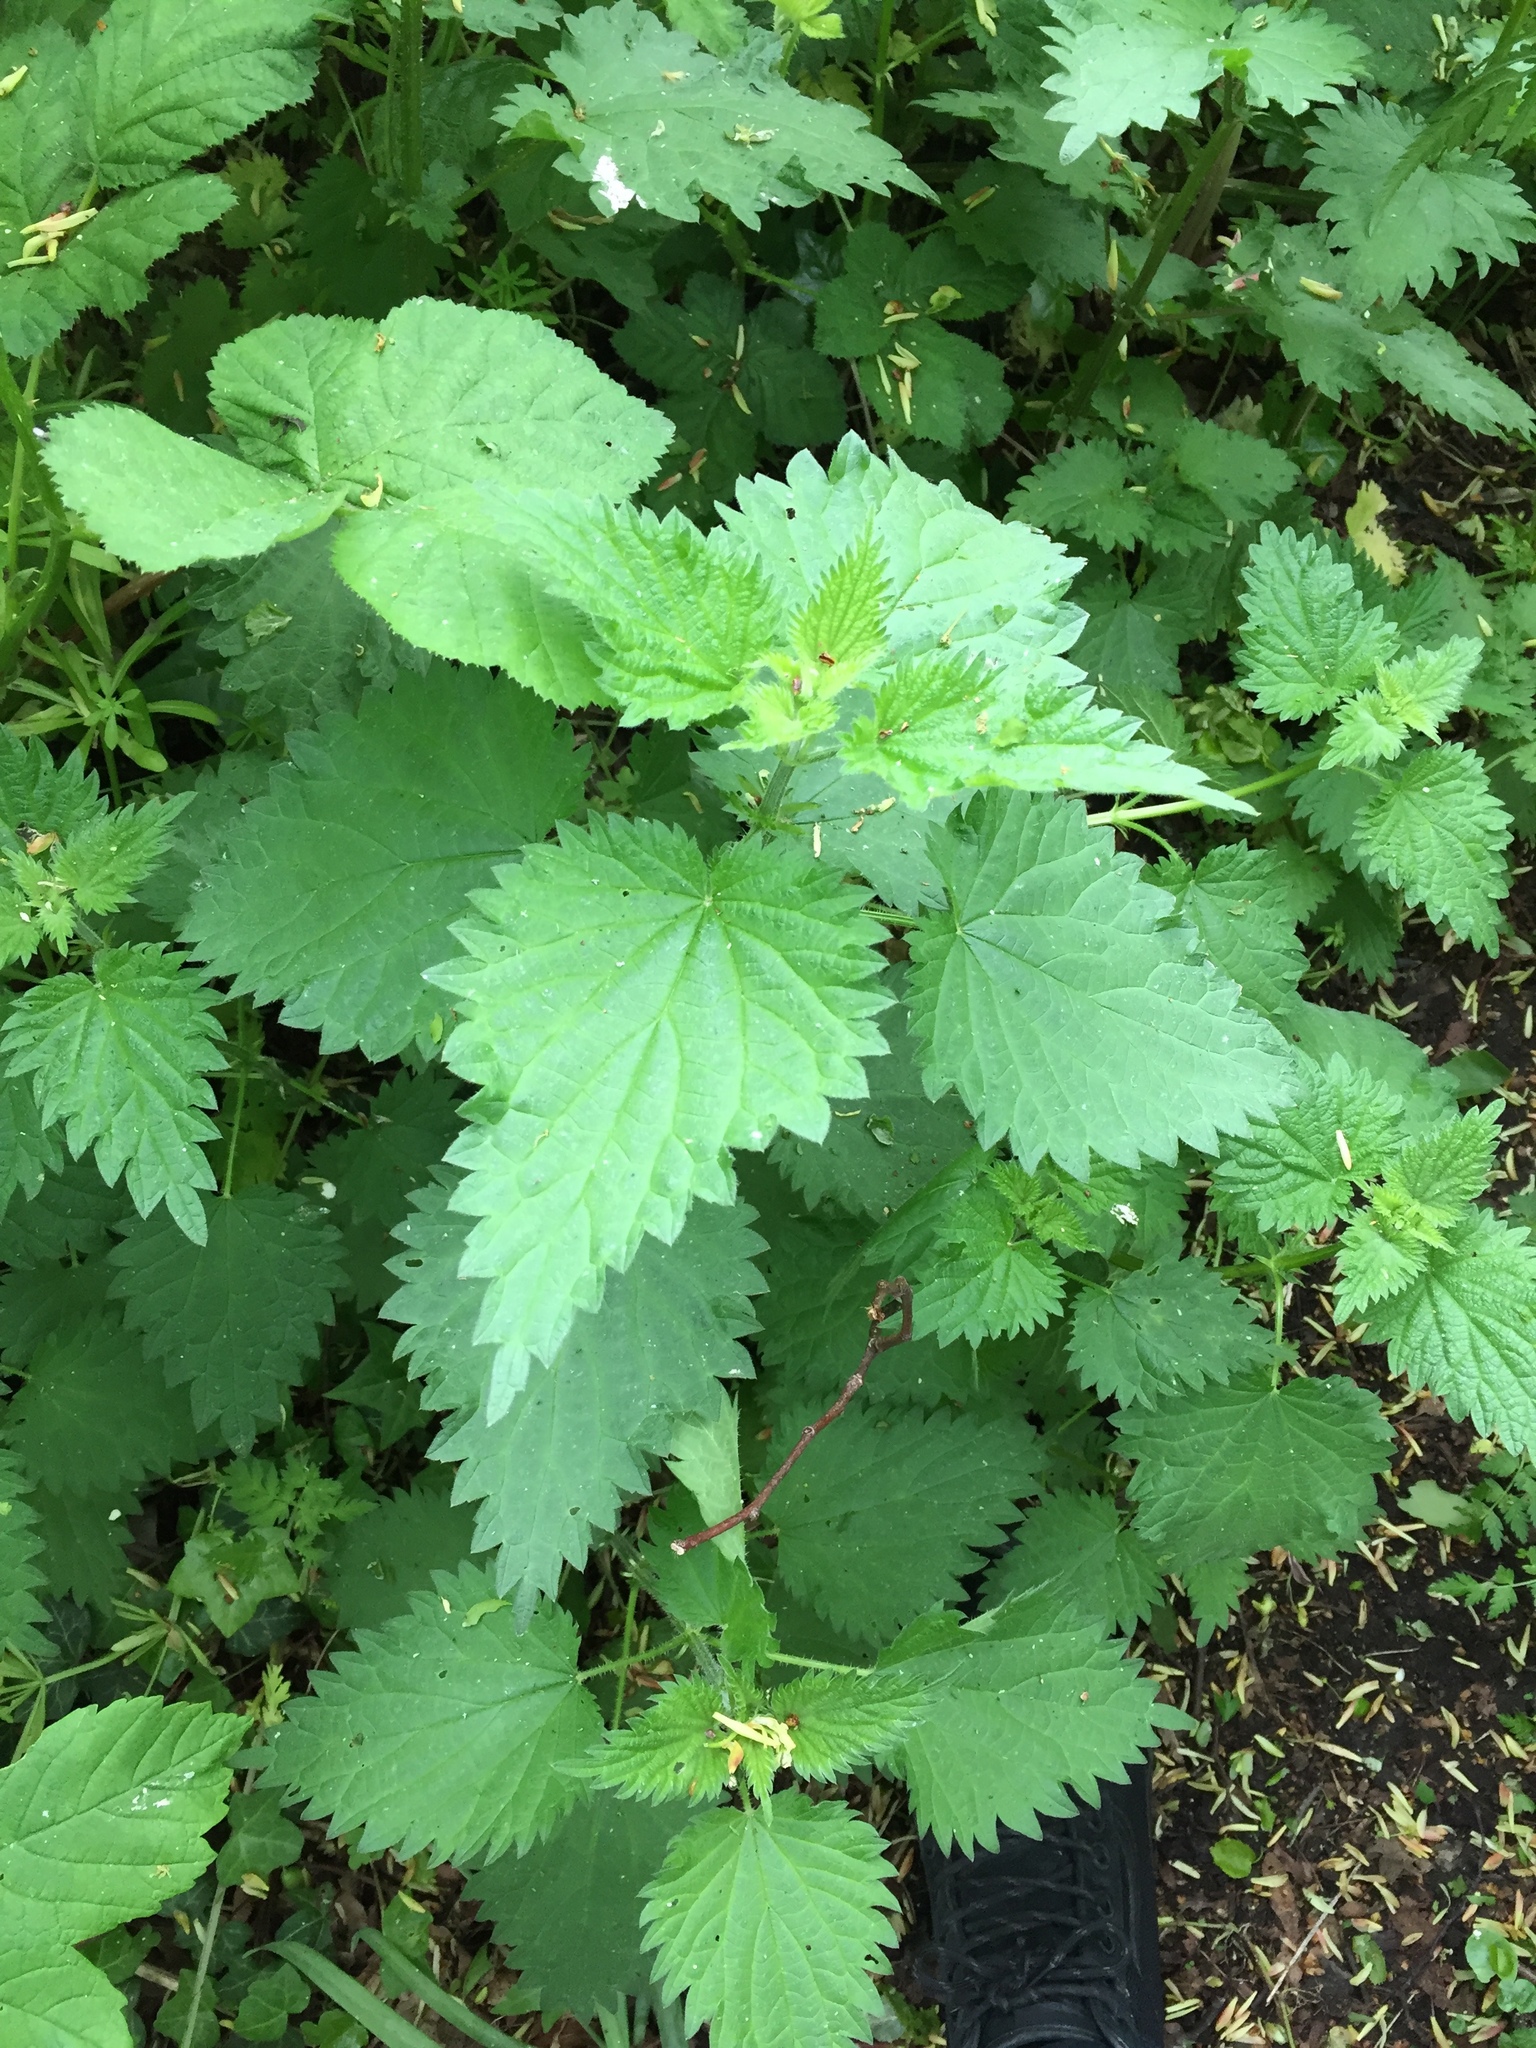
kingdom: Plantae
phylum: Tracheophyta
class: Magnoliopsida
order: Rosales
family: Urticaceae
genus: Urtica
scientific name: Urtica dioica
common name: Common nettle
